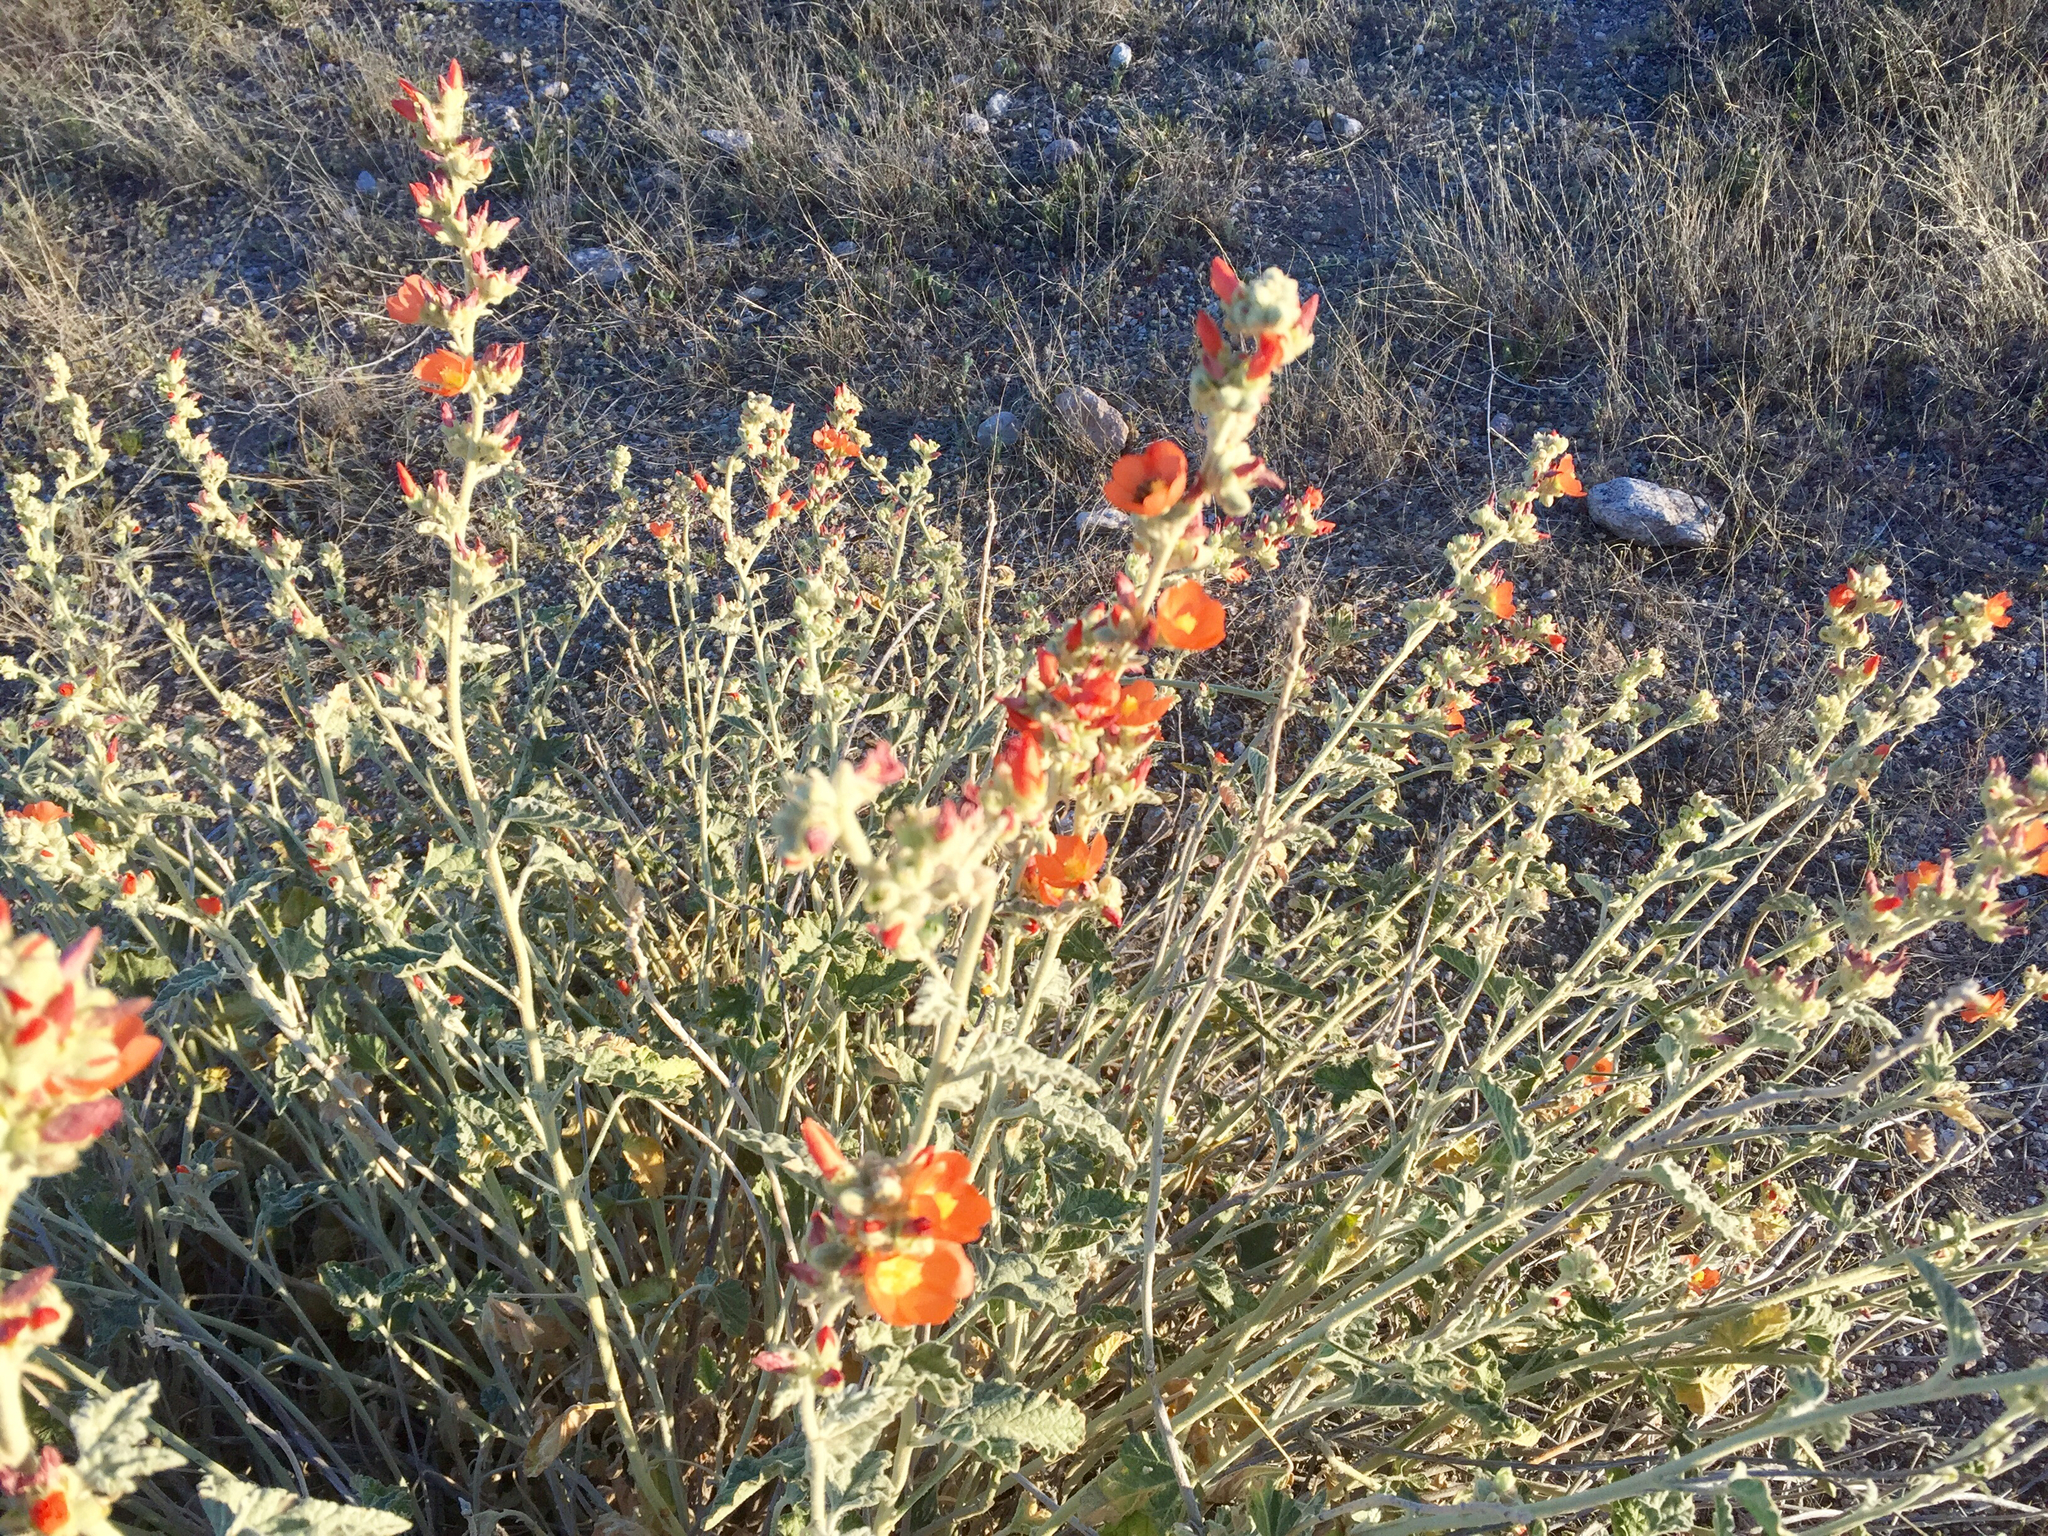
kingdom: Plantae
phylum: Tracheophyta
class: Magnoliopsida
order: Malvales
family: Malvaceae
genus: Sphaeralcea
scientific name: Sphaeralcea ambigua
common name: Apricot globe-mallow
